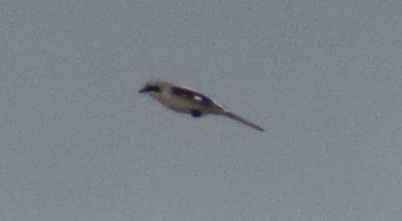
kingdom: Animalia
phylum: Chordata
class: Aves
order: Passeriformes
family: Laniidae
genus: Lanius
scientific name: Lanius excubitor
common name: Great grey shrike
